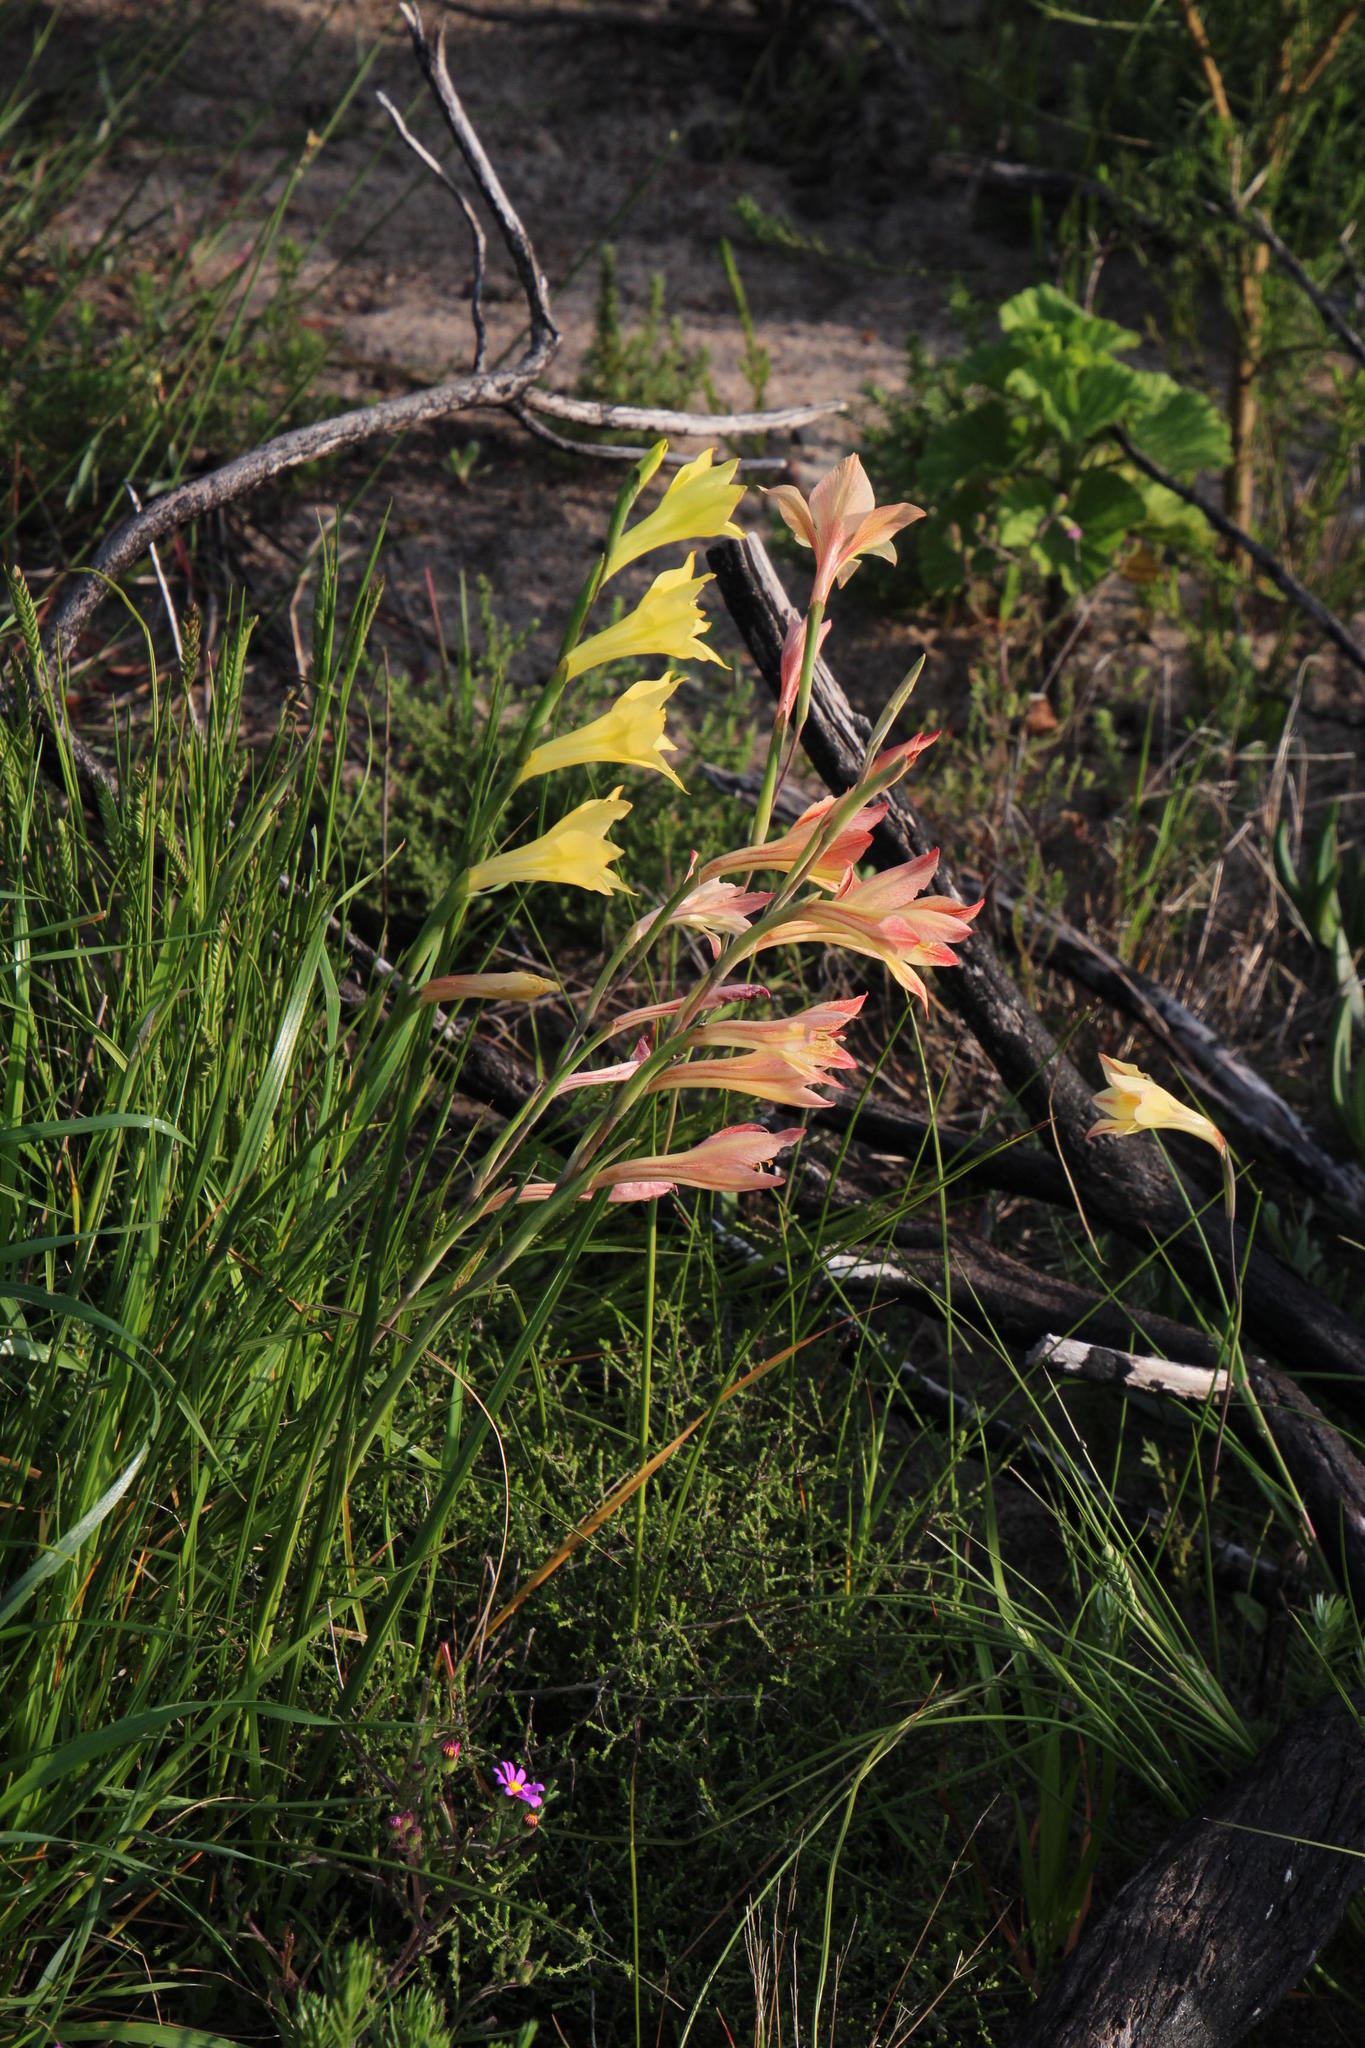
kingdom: Plantae
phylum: Tracheophyta
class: Liliopsida
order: Asparagales
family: Iridaceae
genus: Gladiolus
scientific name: Gladiolus
